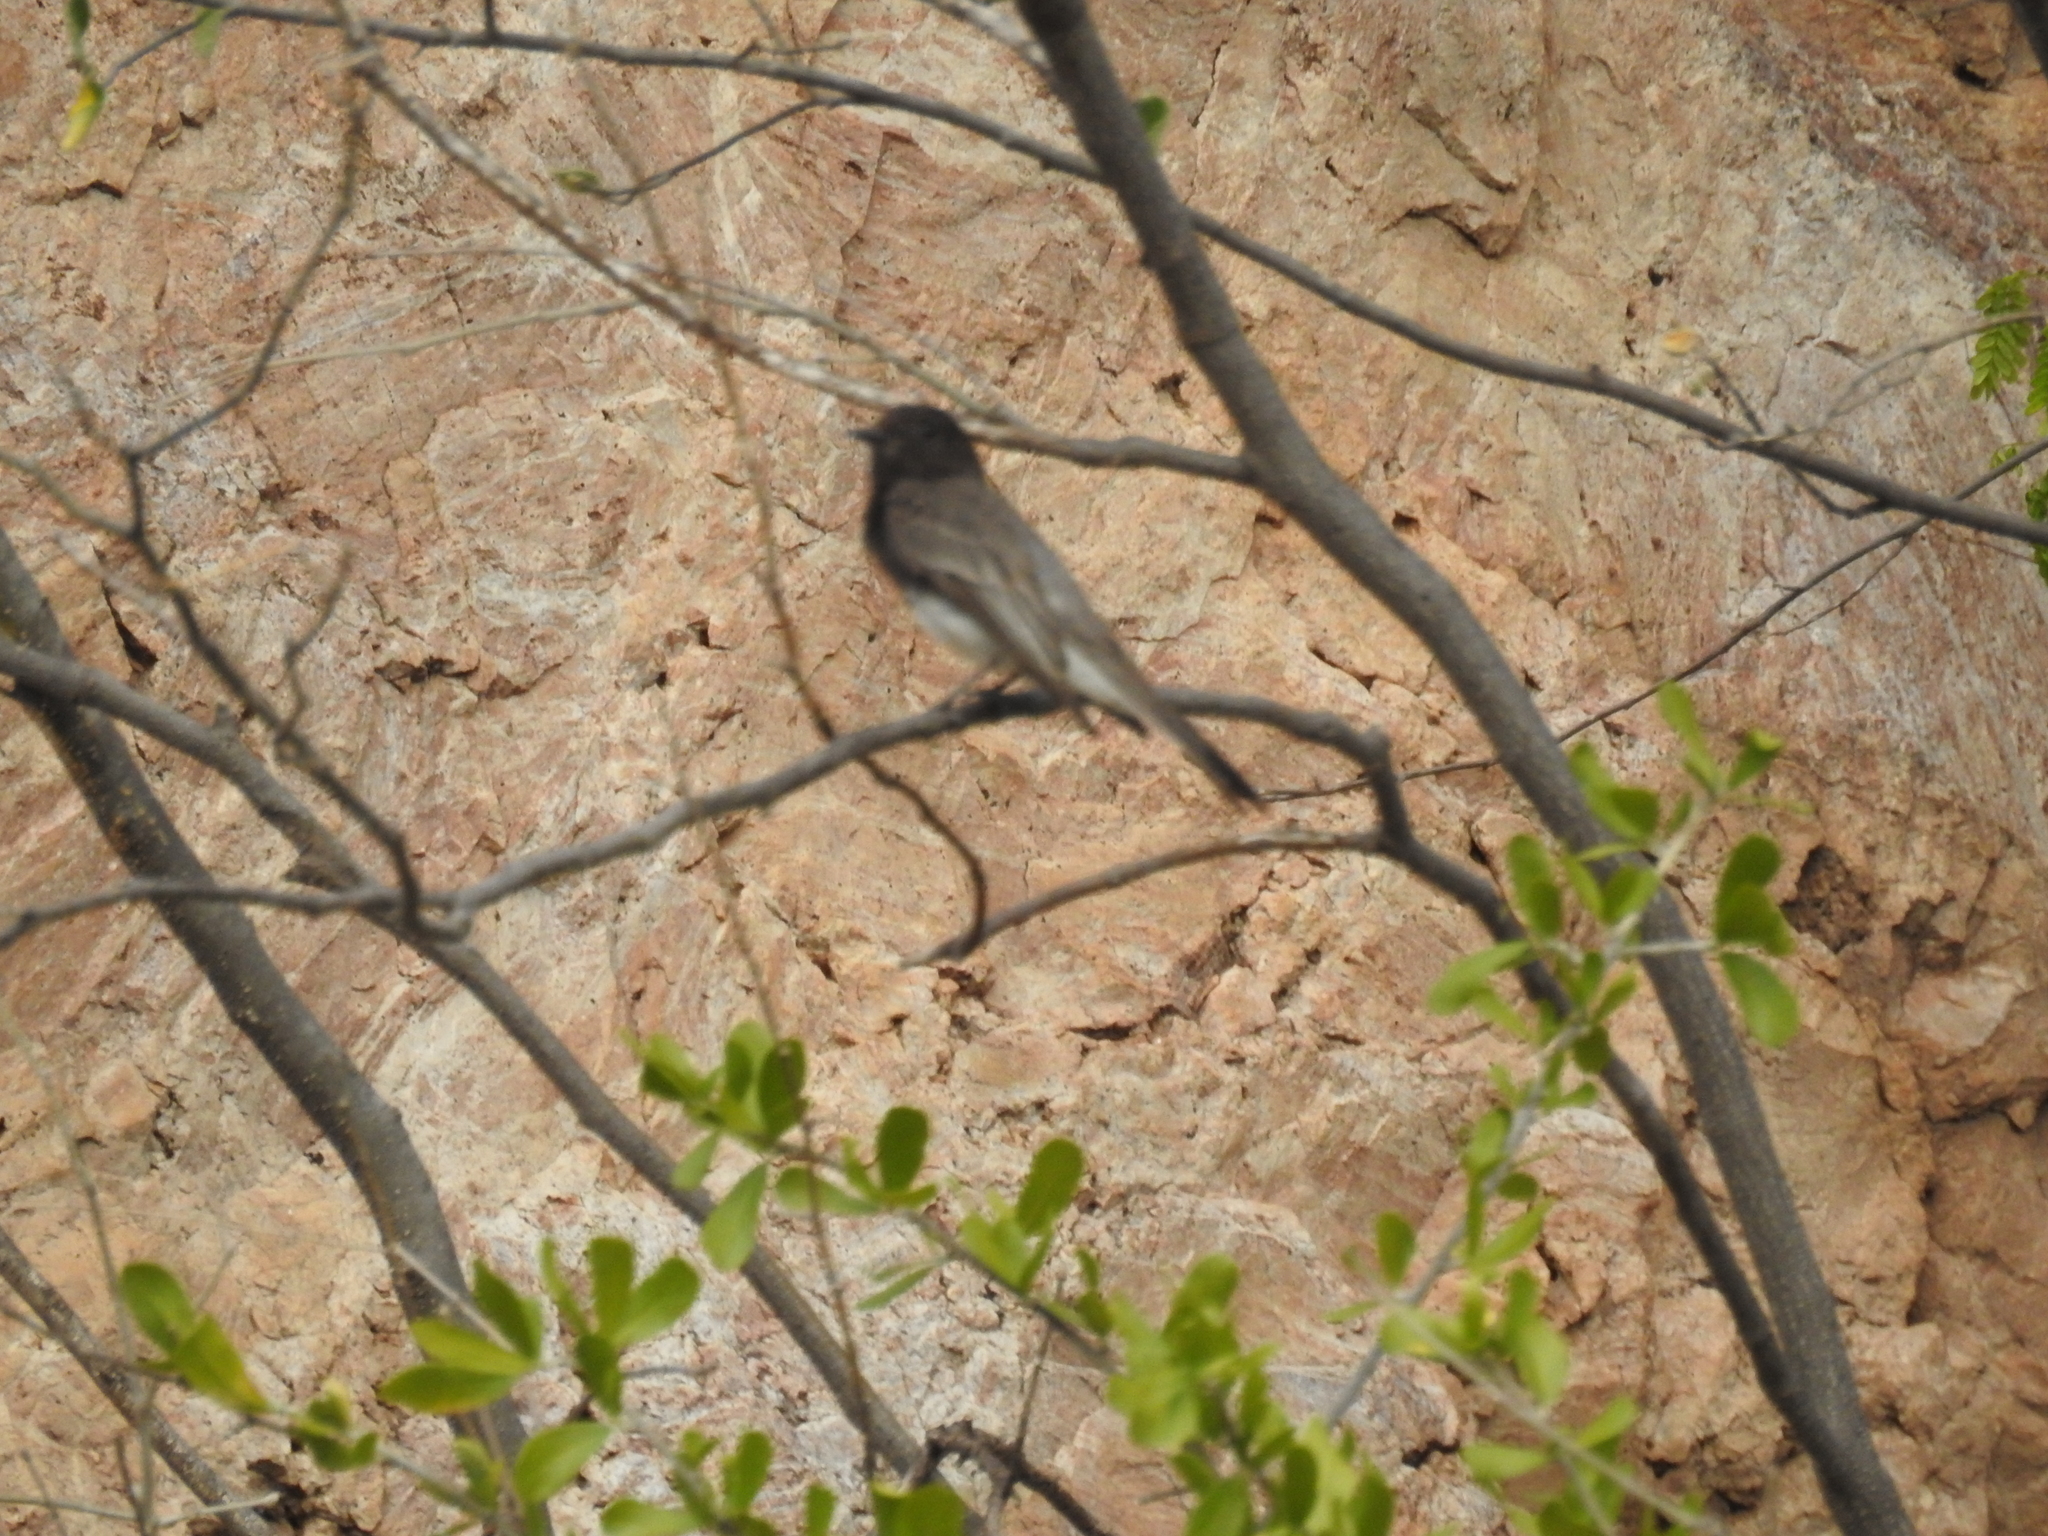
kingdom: Animalia
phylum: Chordata
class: Aves
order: Passeriformes
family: Tyrannidae
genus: Sayornis
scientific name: Sayornis nigricans
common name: Black phoebe
